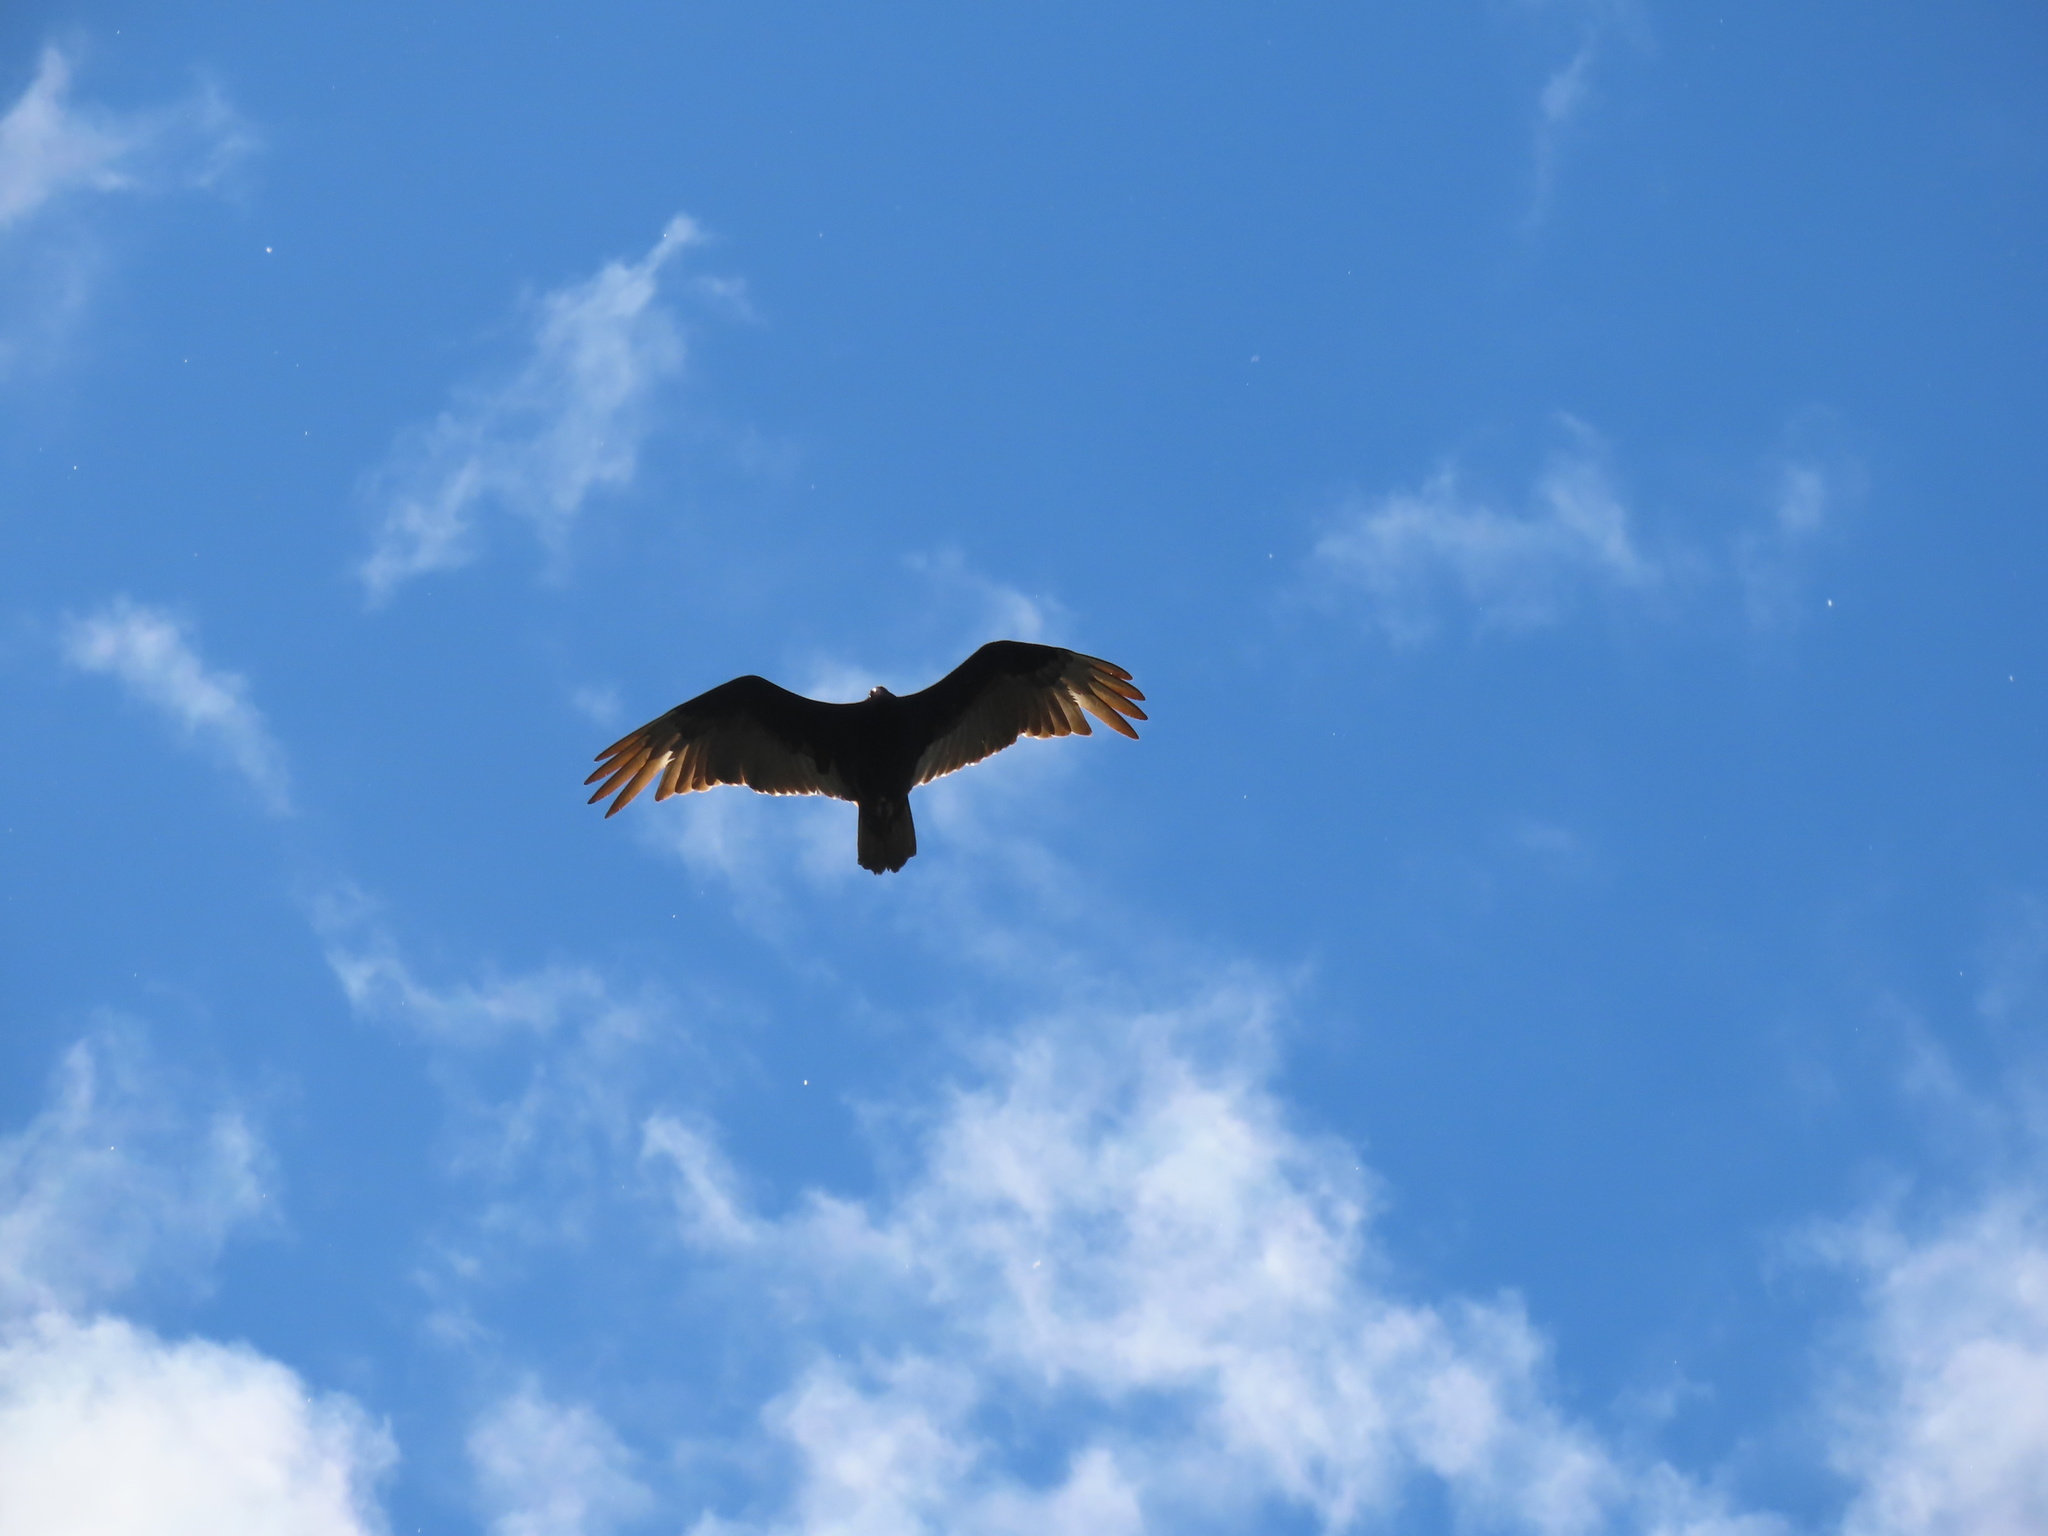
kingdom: Animalia
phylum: Chordata
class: Aves
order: Accipitriformes
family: Cathartidae
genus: Cathartes
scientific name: Cathartes aura
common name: Turkey vulture
